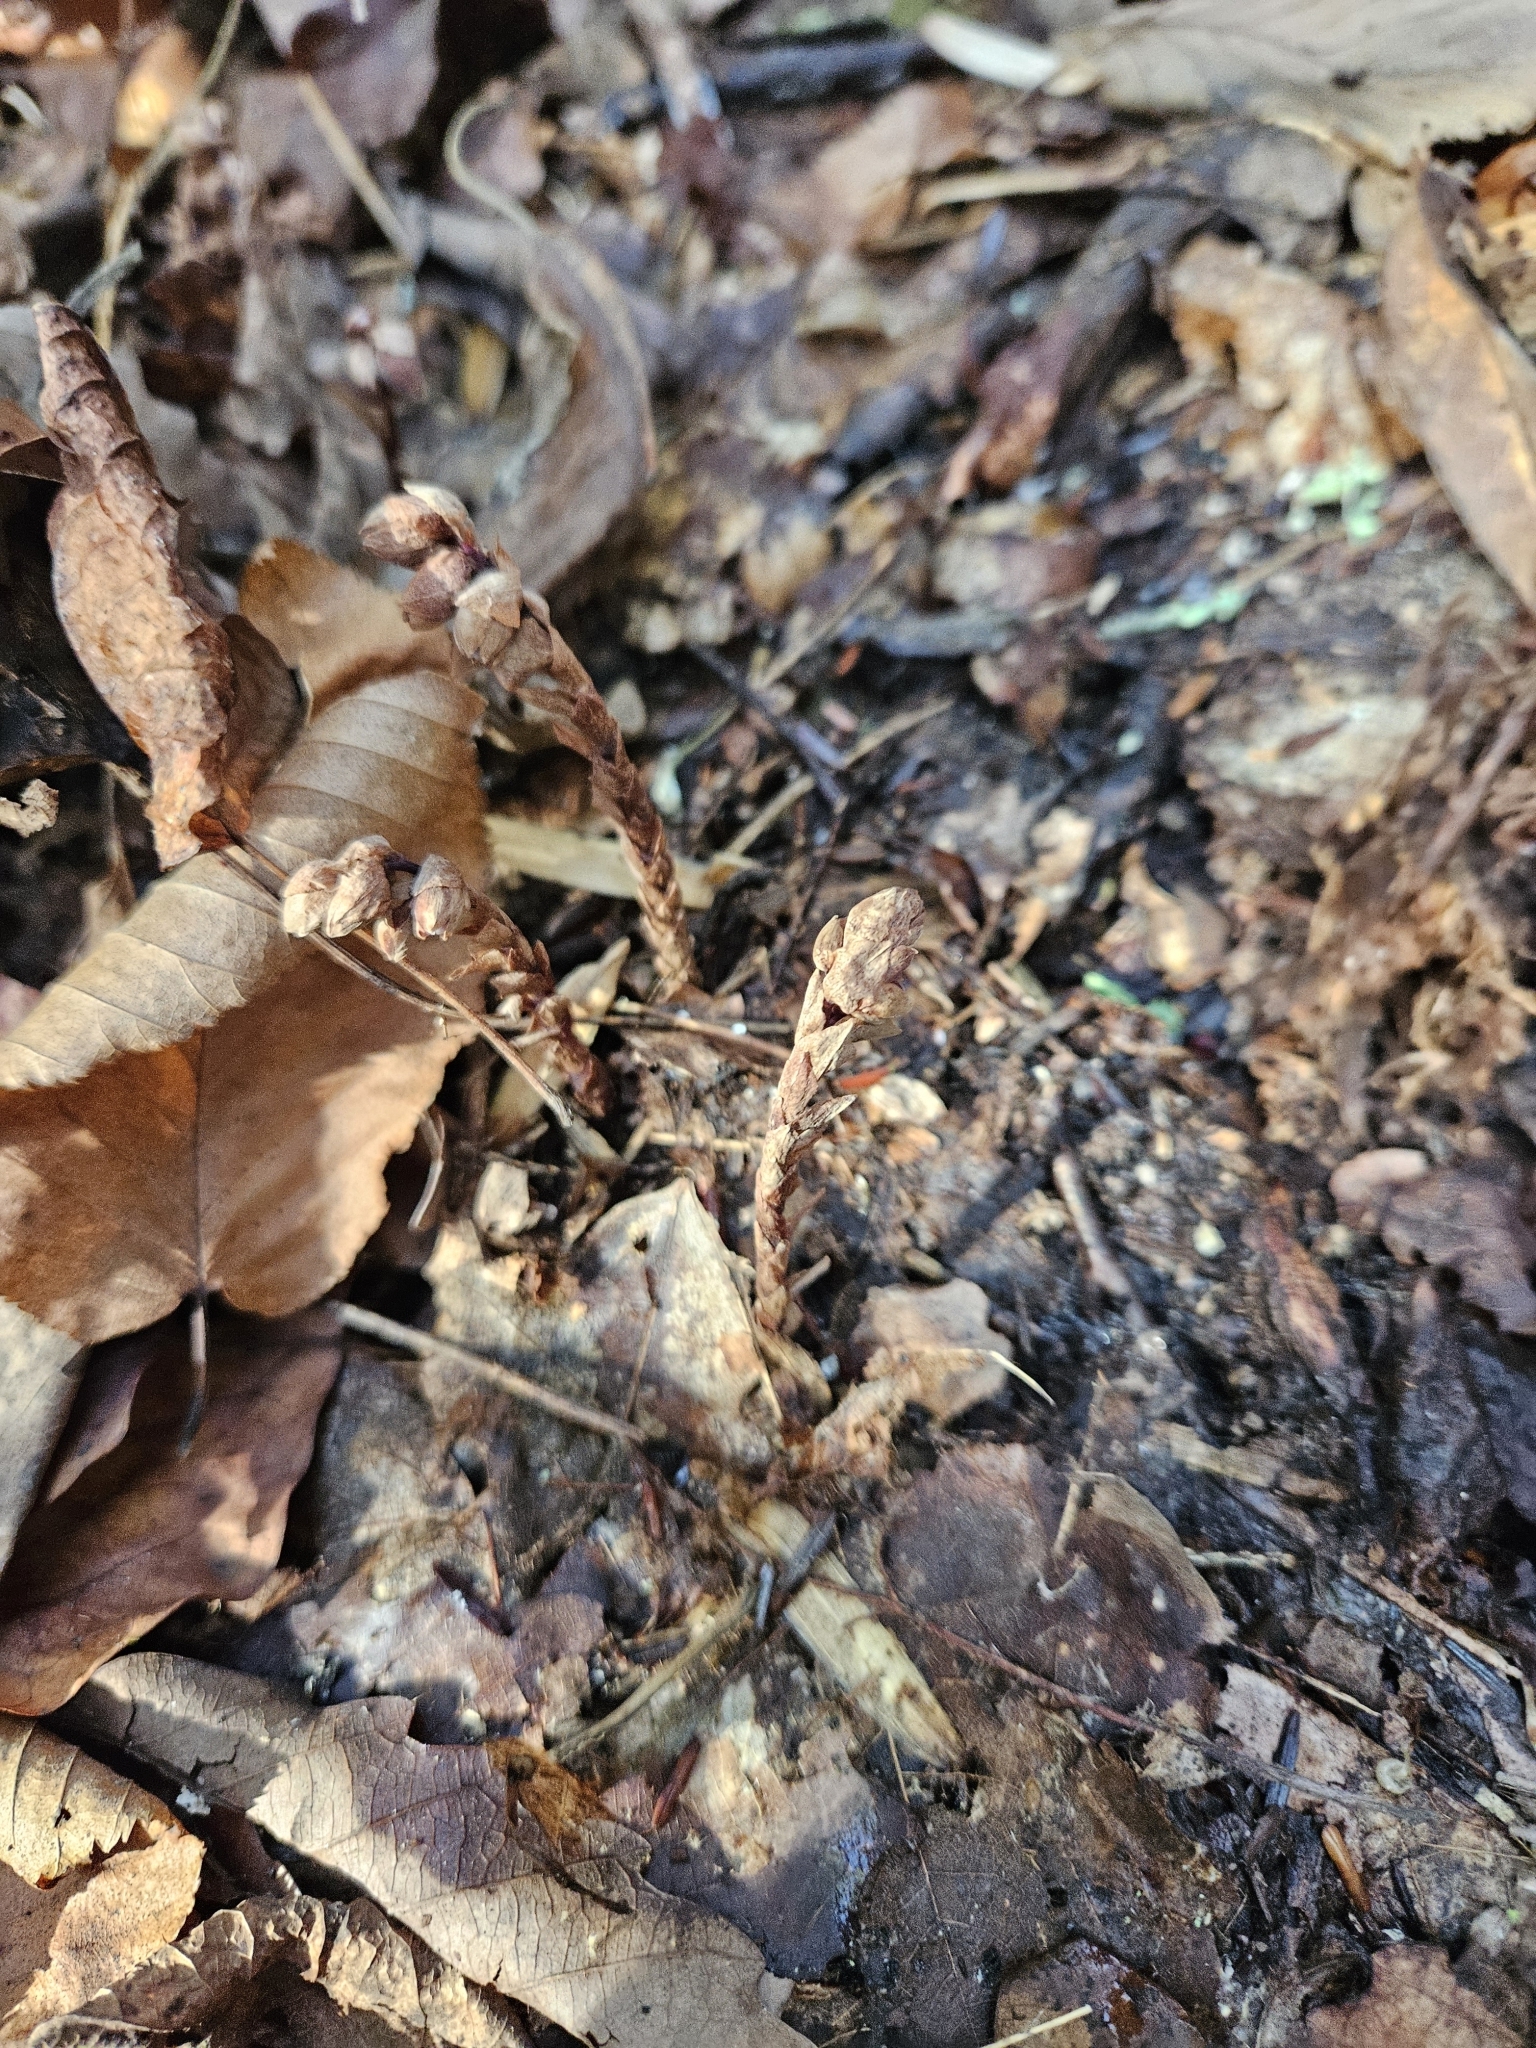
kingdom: Plantae
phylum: Tracheophyta
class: Magnoliopsida
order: Ericales
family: Ericaceae
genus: Monotropsis
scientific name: Monotropsis odorata
